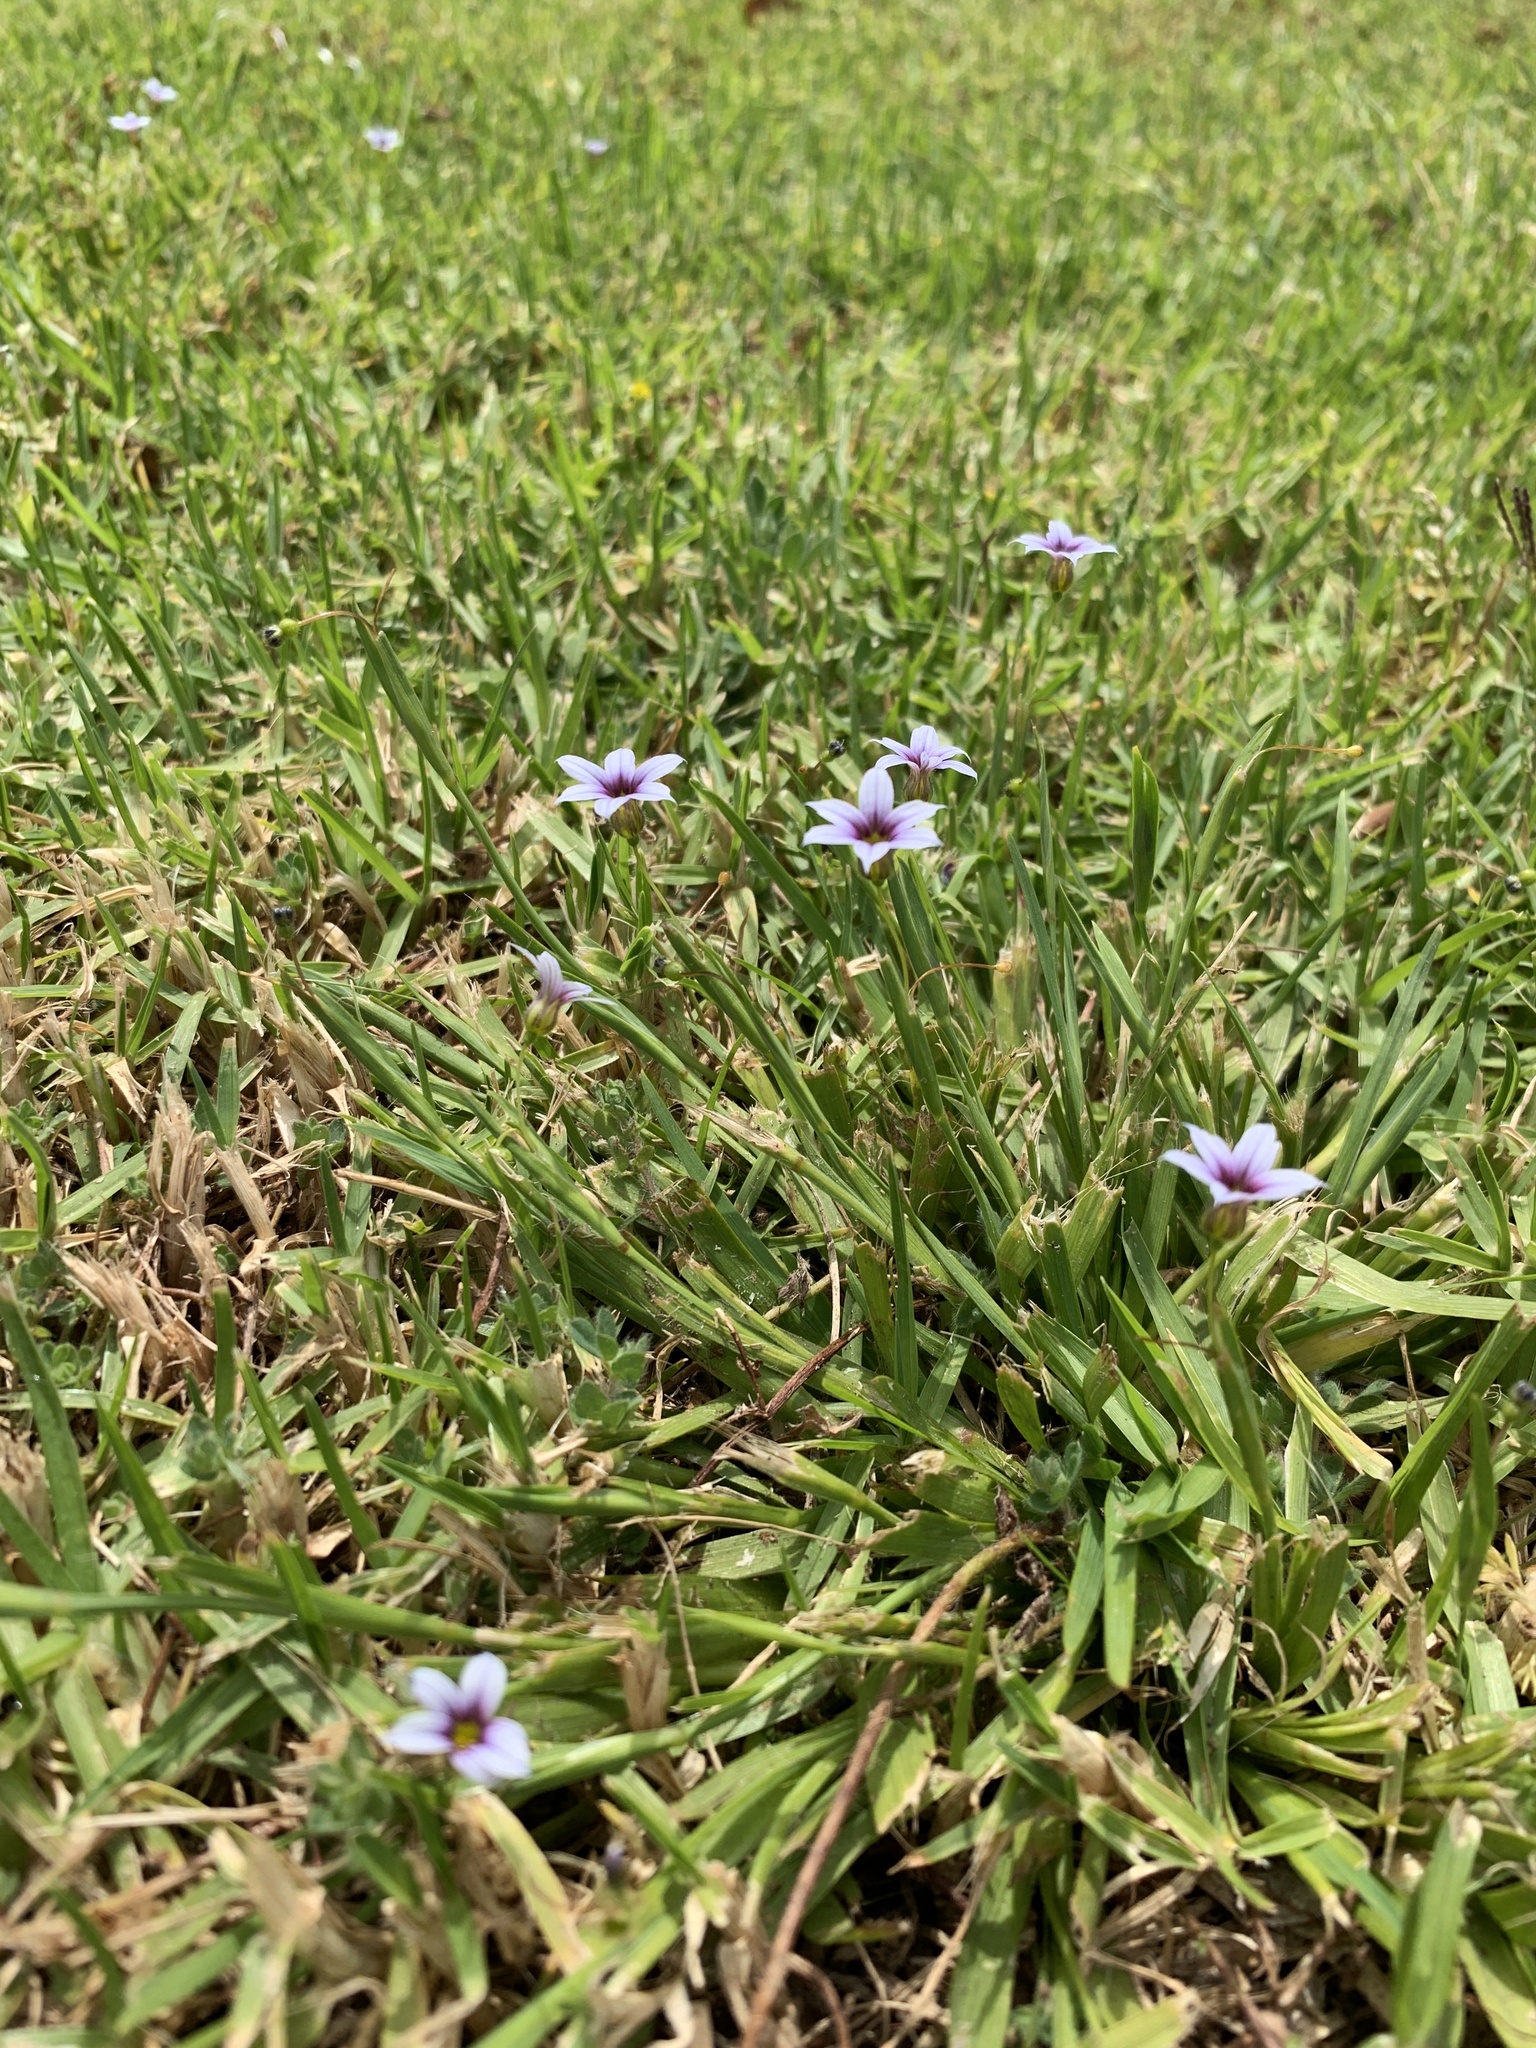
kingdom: Plantae
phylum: Tracheophyta
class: Liliopsida
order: Asparagales
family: Iridaceae
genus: Sisyrinchium
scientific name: Sisyrinchium micranthum
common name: Bermuda pigroot
